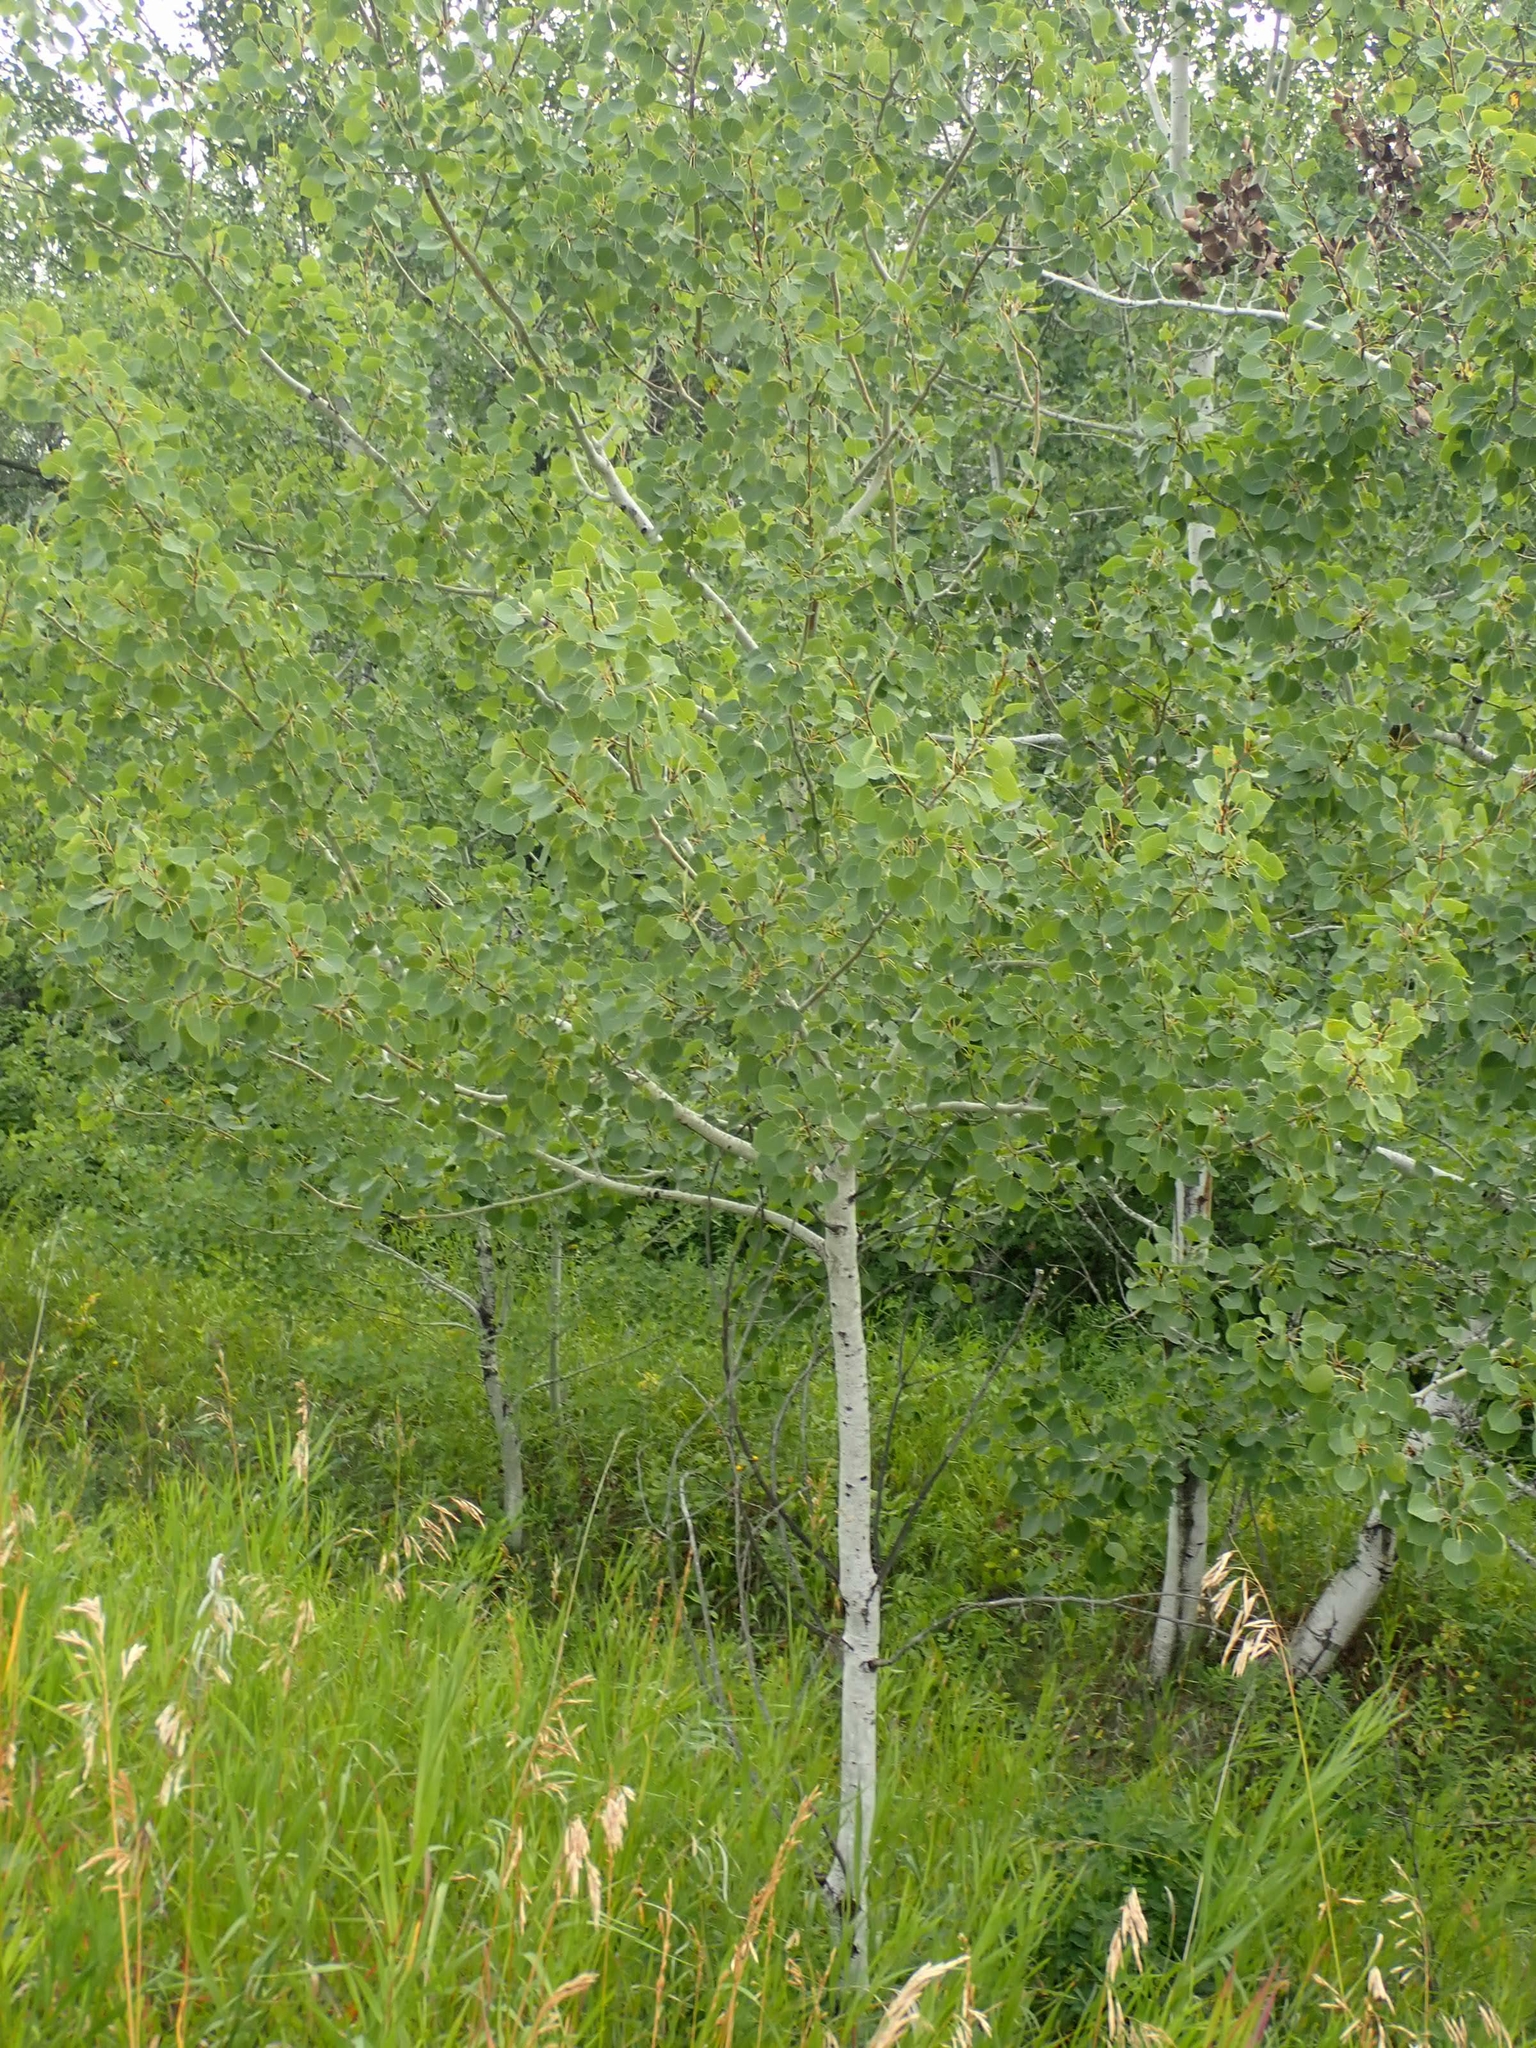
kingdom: Plantae
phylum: Tracheophyta
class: Magnoliopsida
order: Malpighiales
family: Salicaceae
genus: Populus
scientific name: Populus tremuloides
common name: Quaking aspen
